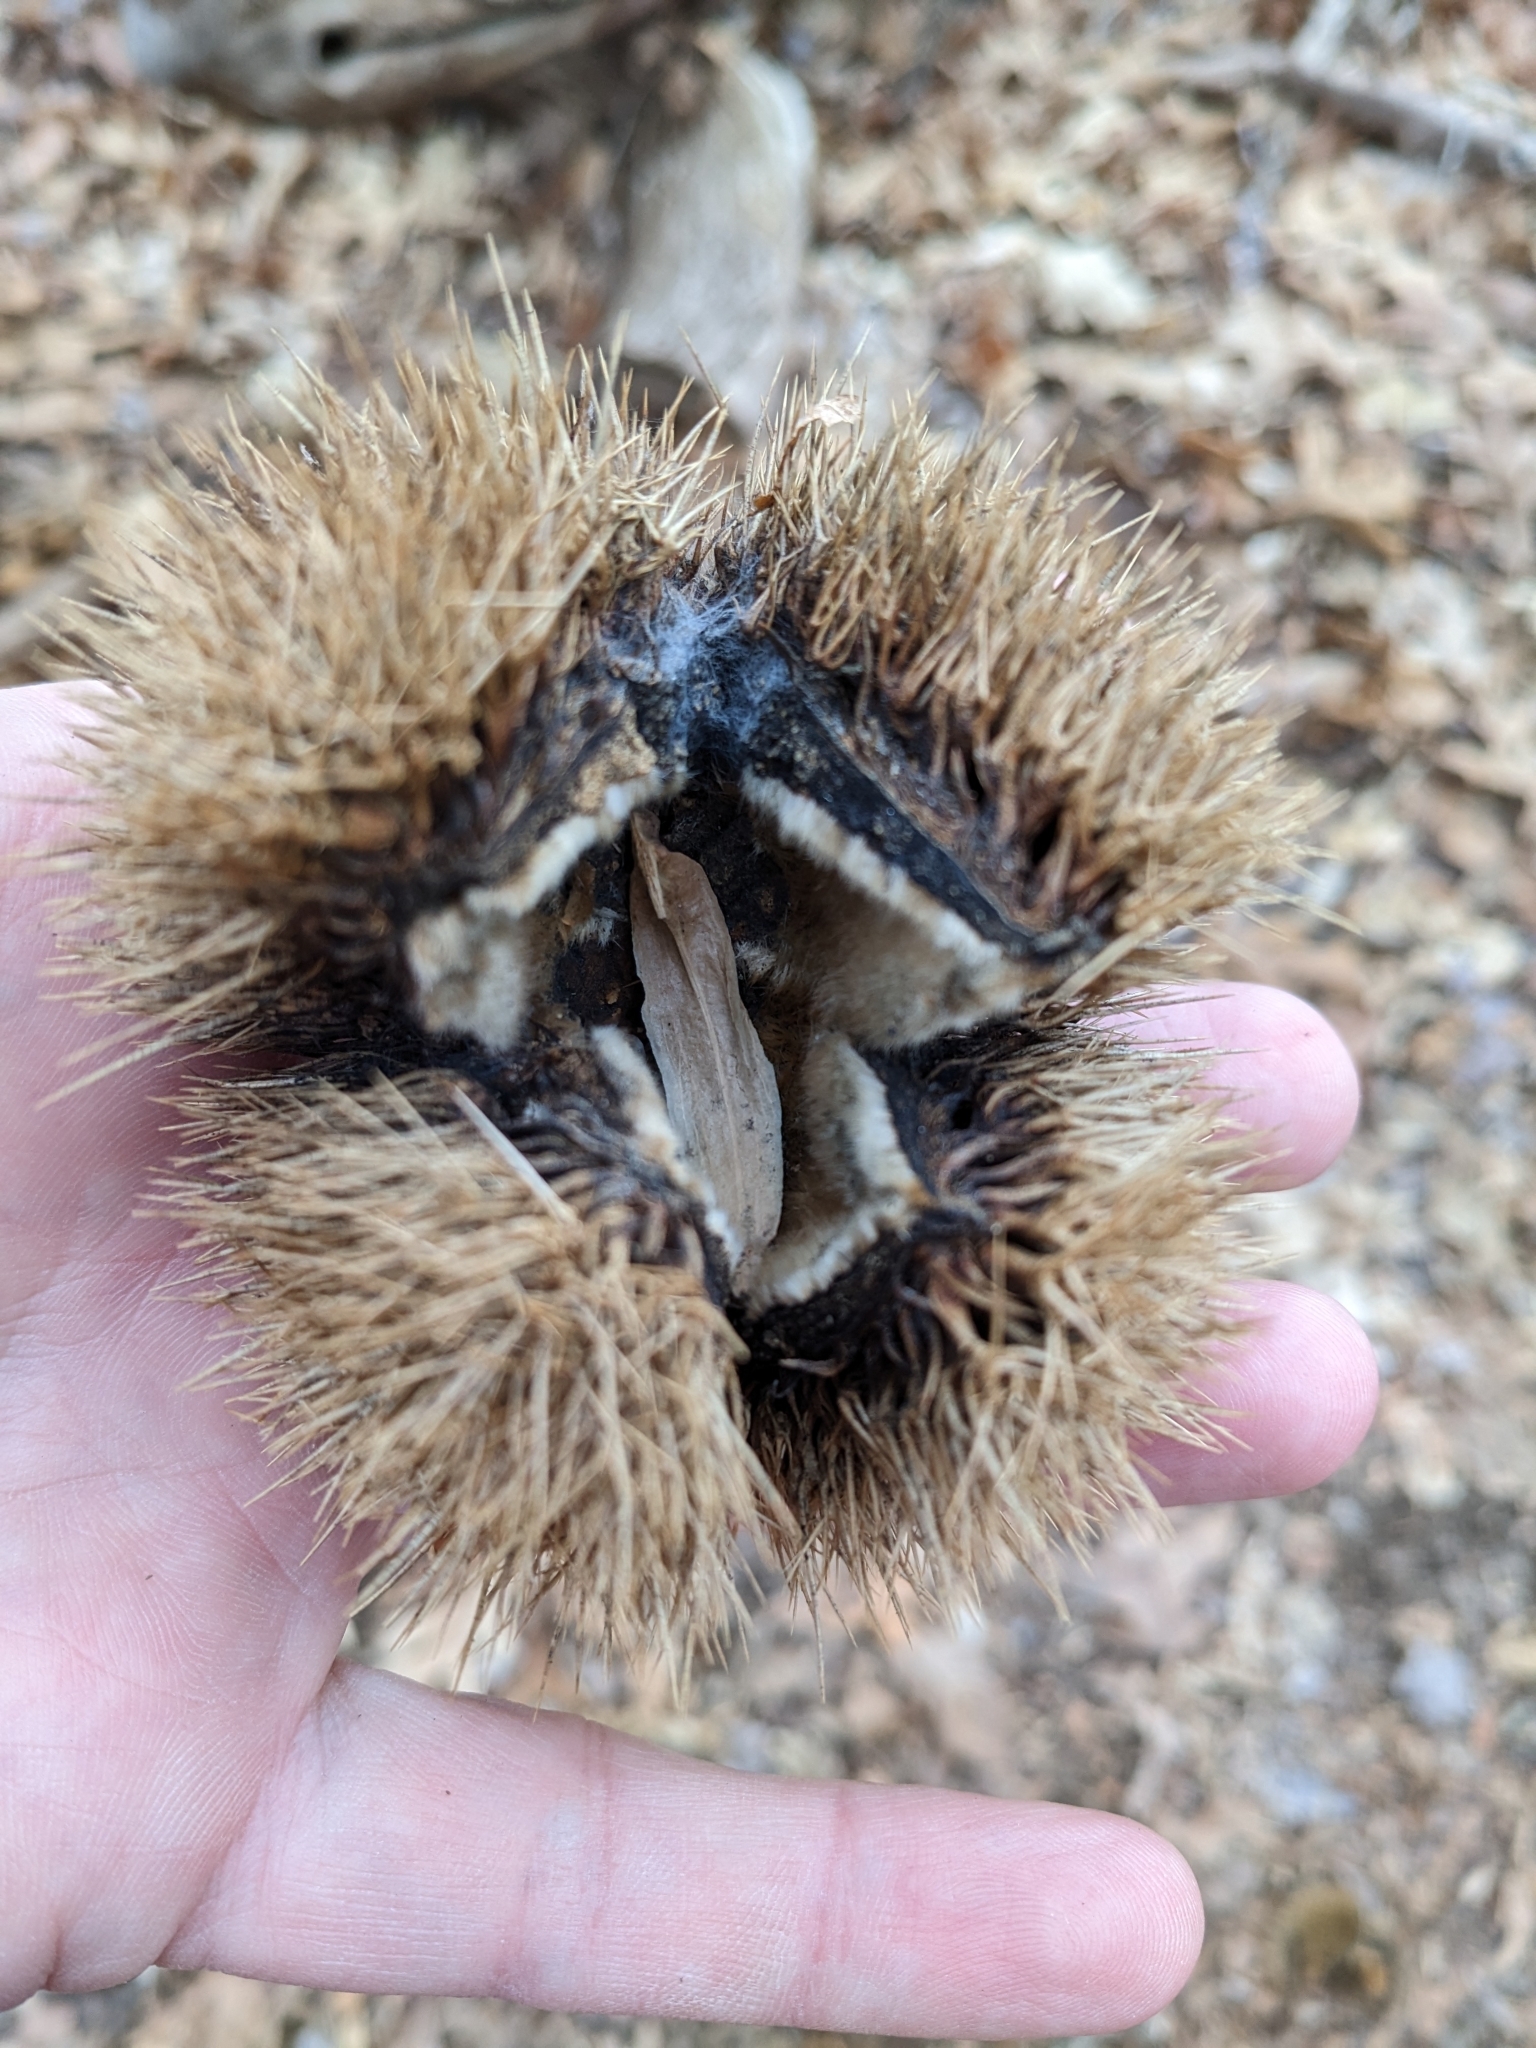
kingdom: Plantae
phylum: Tracheophyta
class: Magnoliopsida
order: Magnoliales
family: Magnoliaceae
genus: Liriodendron
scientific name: Liriodendron tulipifera
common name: Tulip tree
